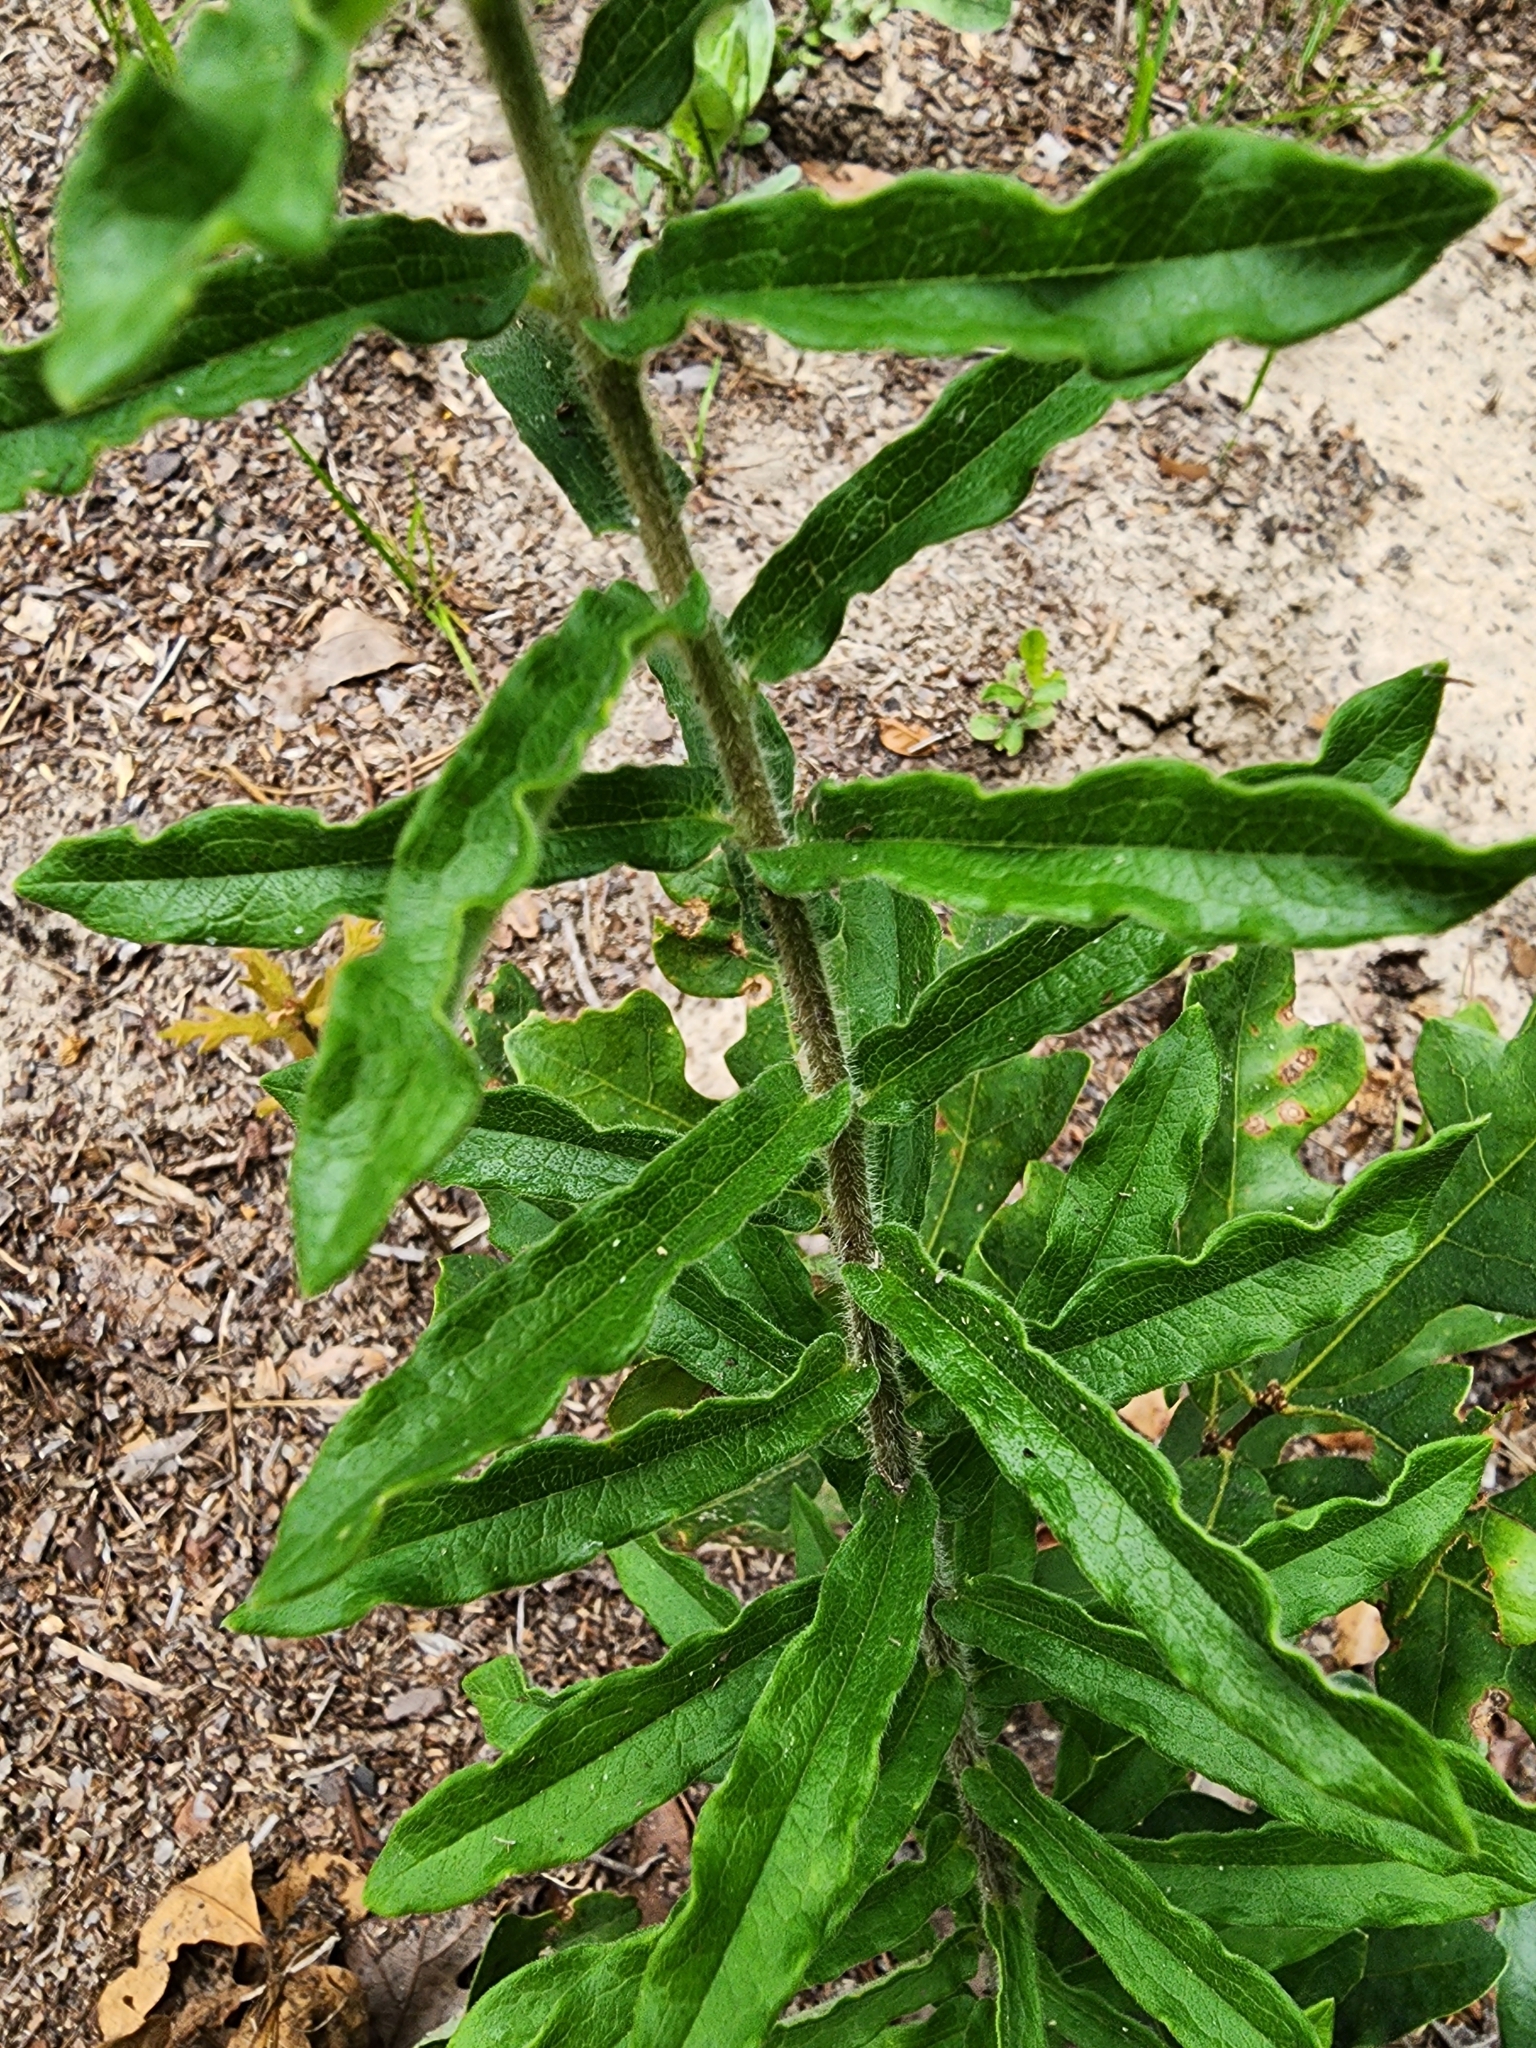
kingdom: Plantae
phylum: Tracheophyta
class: Magnoliopsida
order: Gentianales
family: Apocynaceae
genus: Asclepias
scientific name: Asclepias tuberosa
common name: Butterfly milkweed
